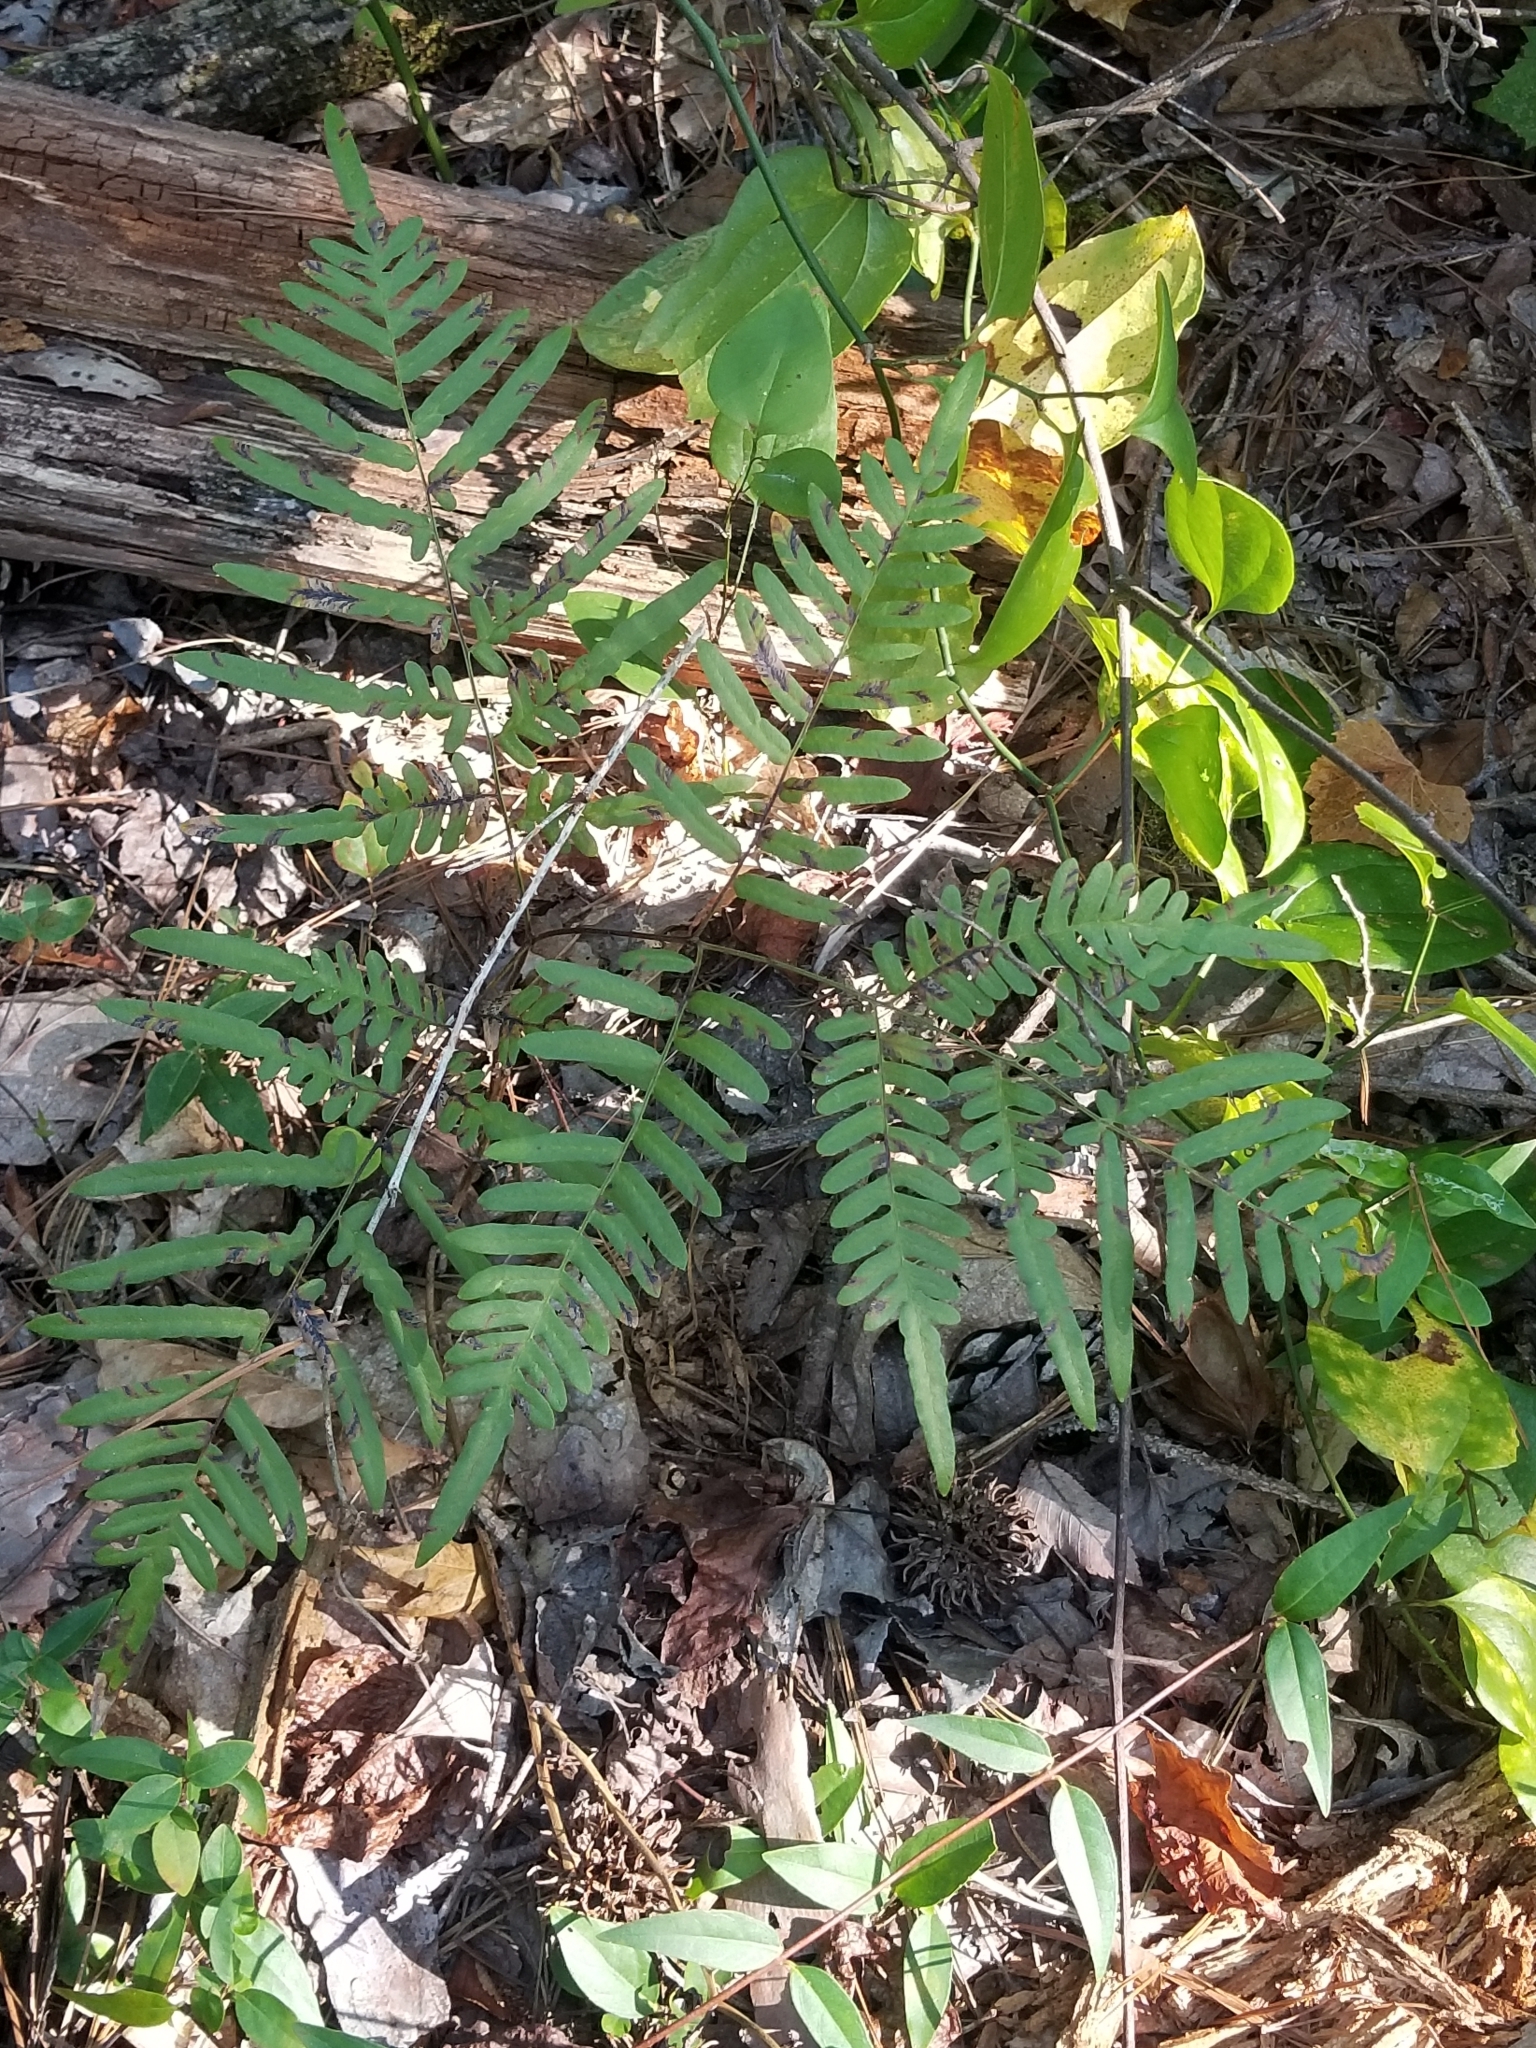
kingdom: Plantae
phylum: Tracheophyta
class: Polypodiopsida
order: Polypodiales
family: Dennstaedtiaceae
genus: Pteridium
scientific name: Pteridium
